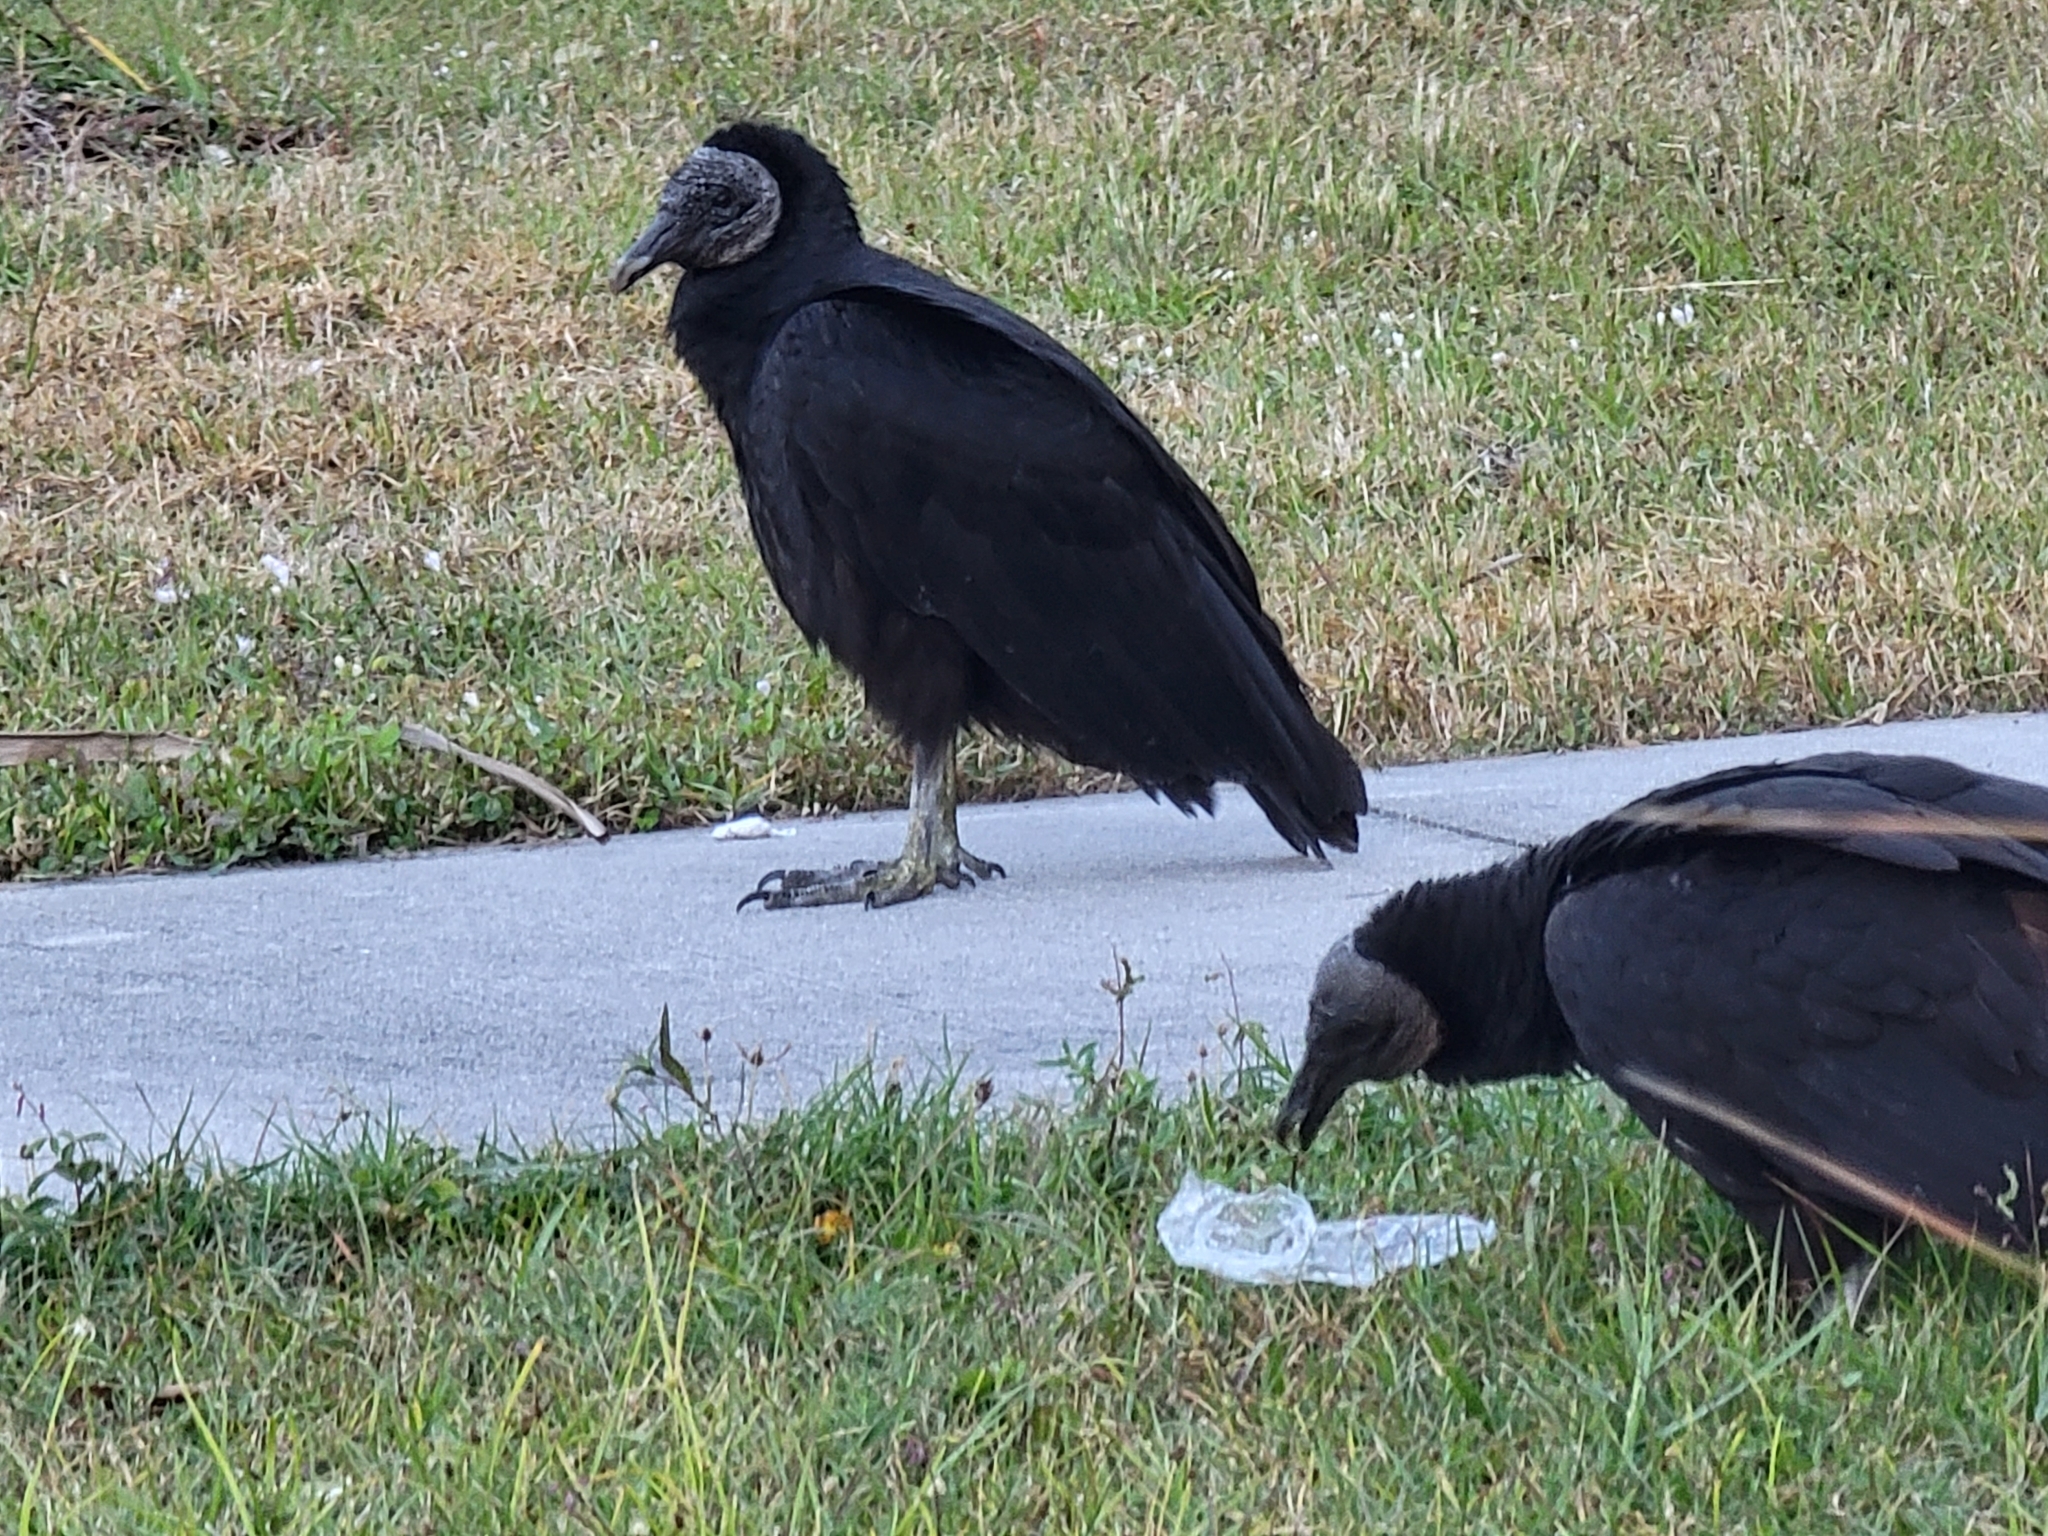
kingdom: Animalia
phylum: Chordata
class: Aves
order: Accipitriformes
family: Cathartidae
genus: Coragyps
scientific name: Coragyps atratus
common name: Black vulture
